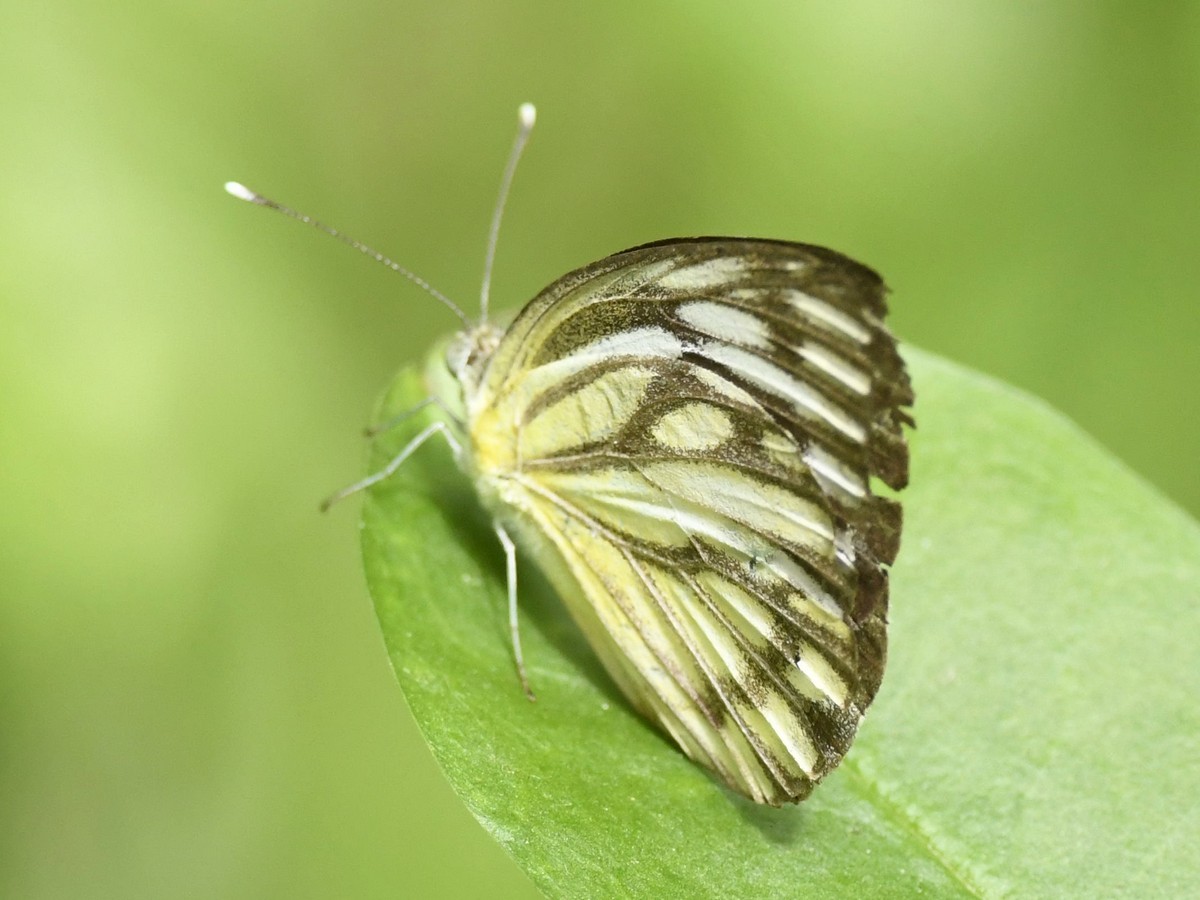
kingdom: Animalia
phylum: Arthropoda
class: Insecta
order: Lepidoptera
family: Pieridae
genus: Cepora
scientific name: Cepora nerissa
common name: Common gull
